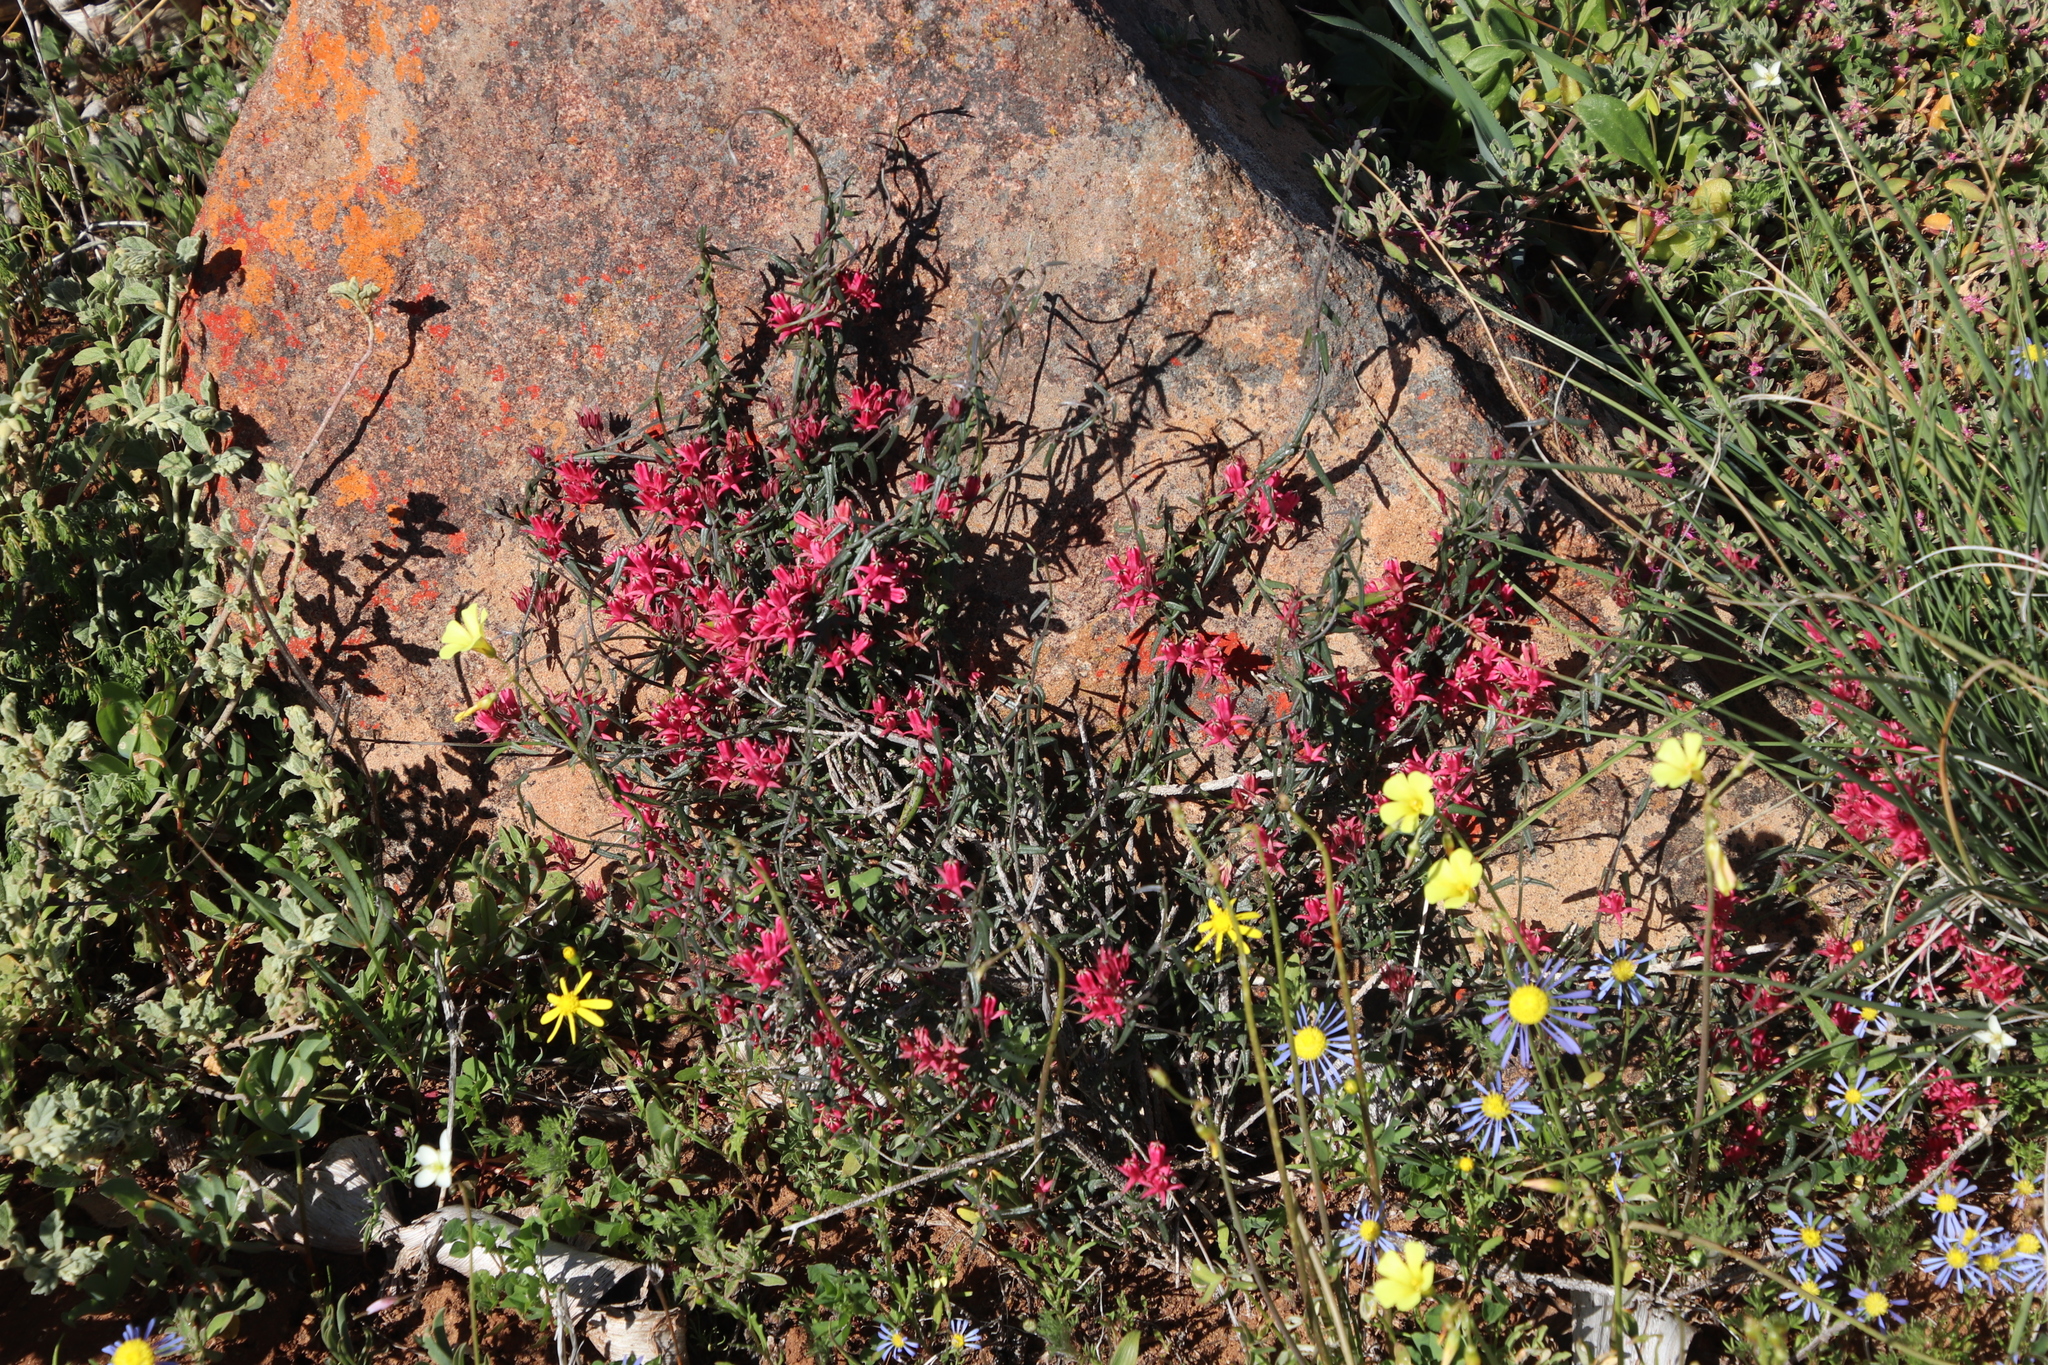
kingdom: Plantae
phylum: Tracheophyta
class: Magnoliopsida
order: Gentianales
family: Apocynaceae
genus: Microloma
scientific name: Microloma sagittatum
